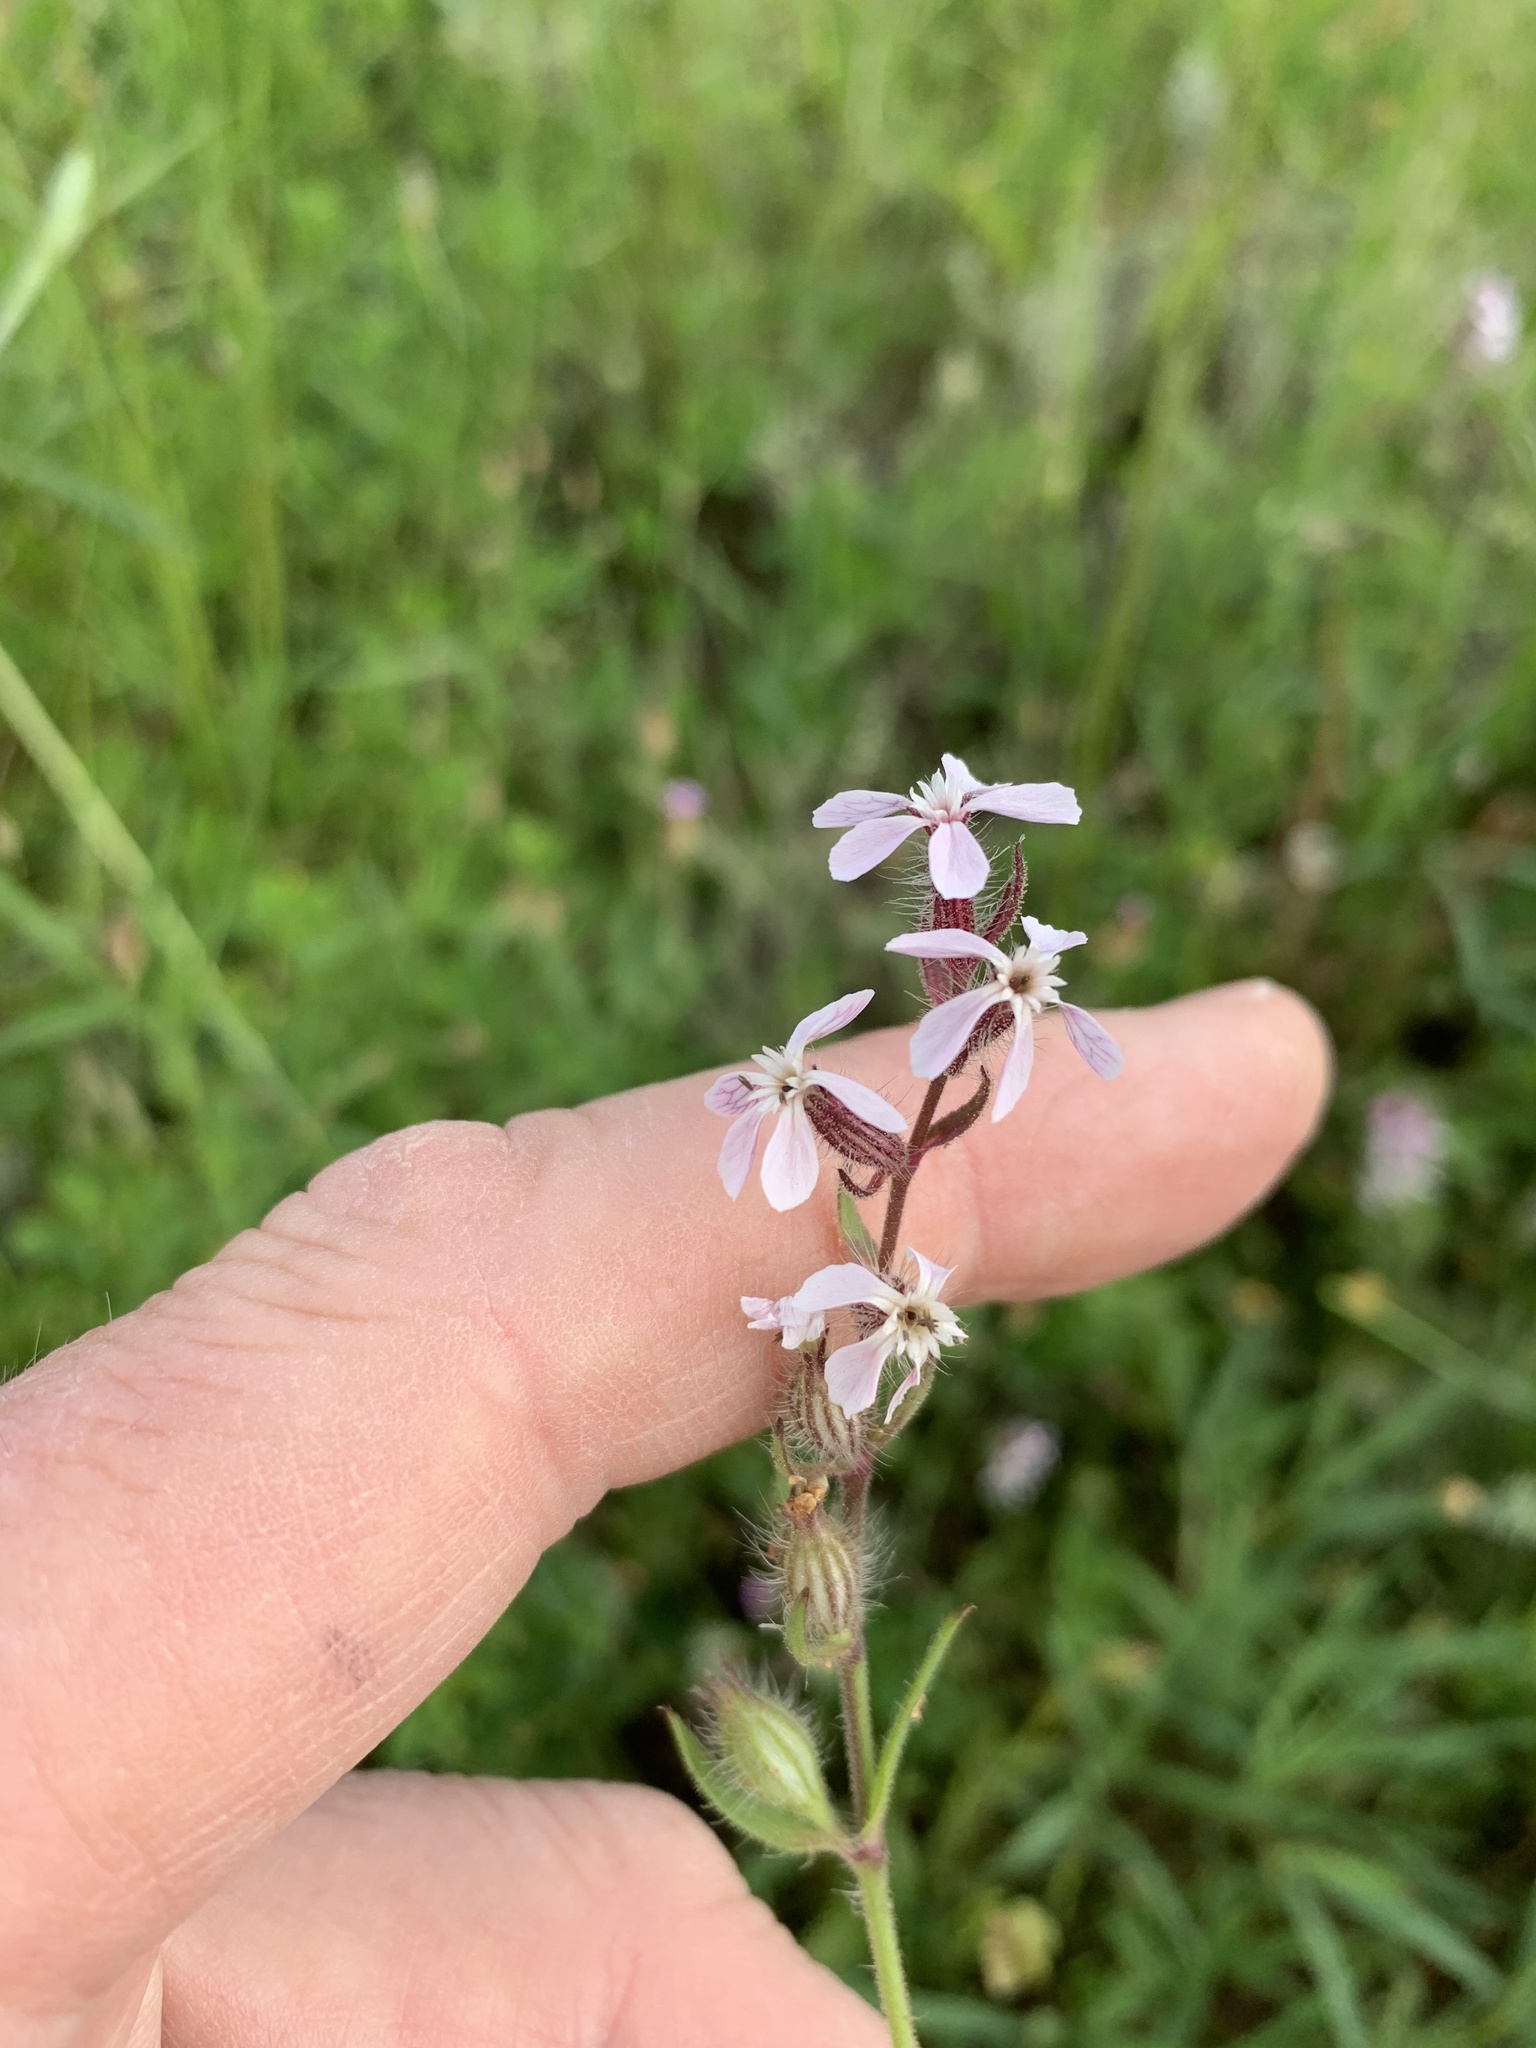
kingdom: Plantae
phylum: Tracheophyta
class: Magnoliopsida
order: Caryophyllales
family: Caryophyllaceae
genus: Silene
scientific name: Silene gallica
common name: Small-flowered catchfly
